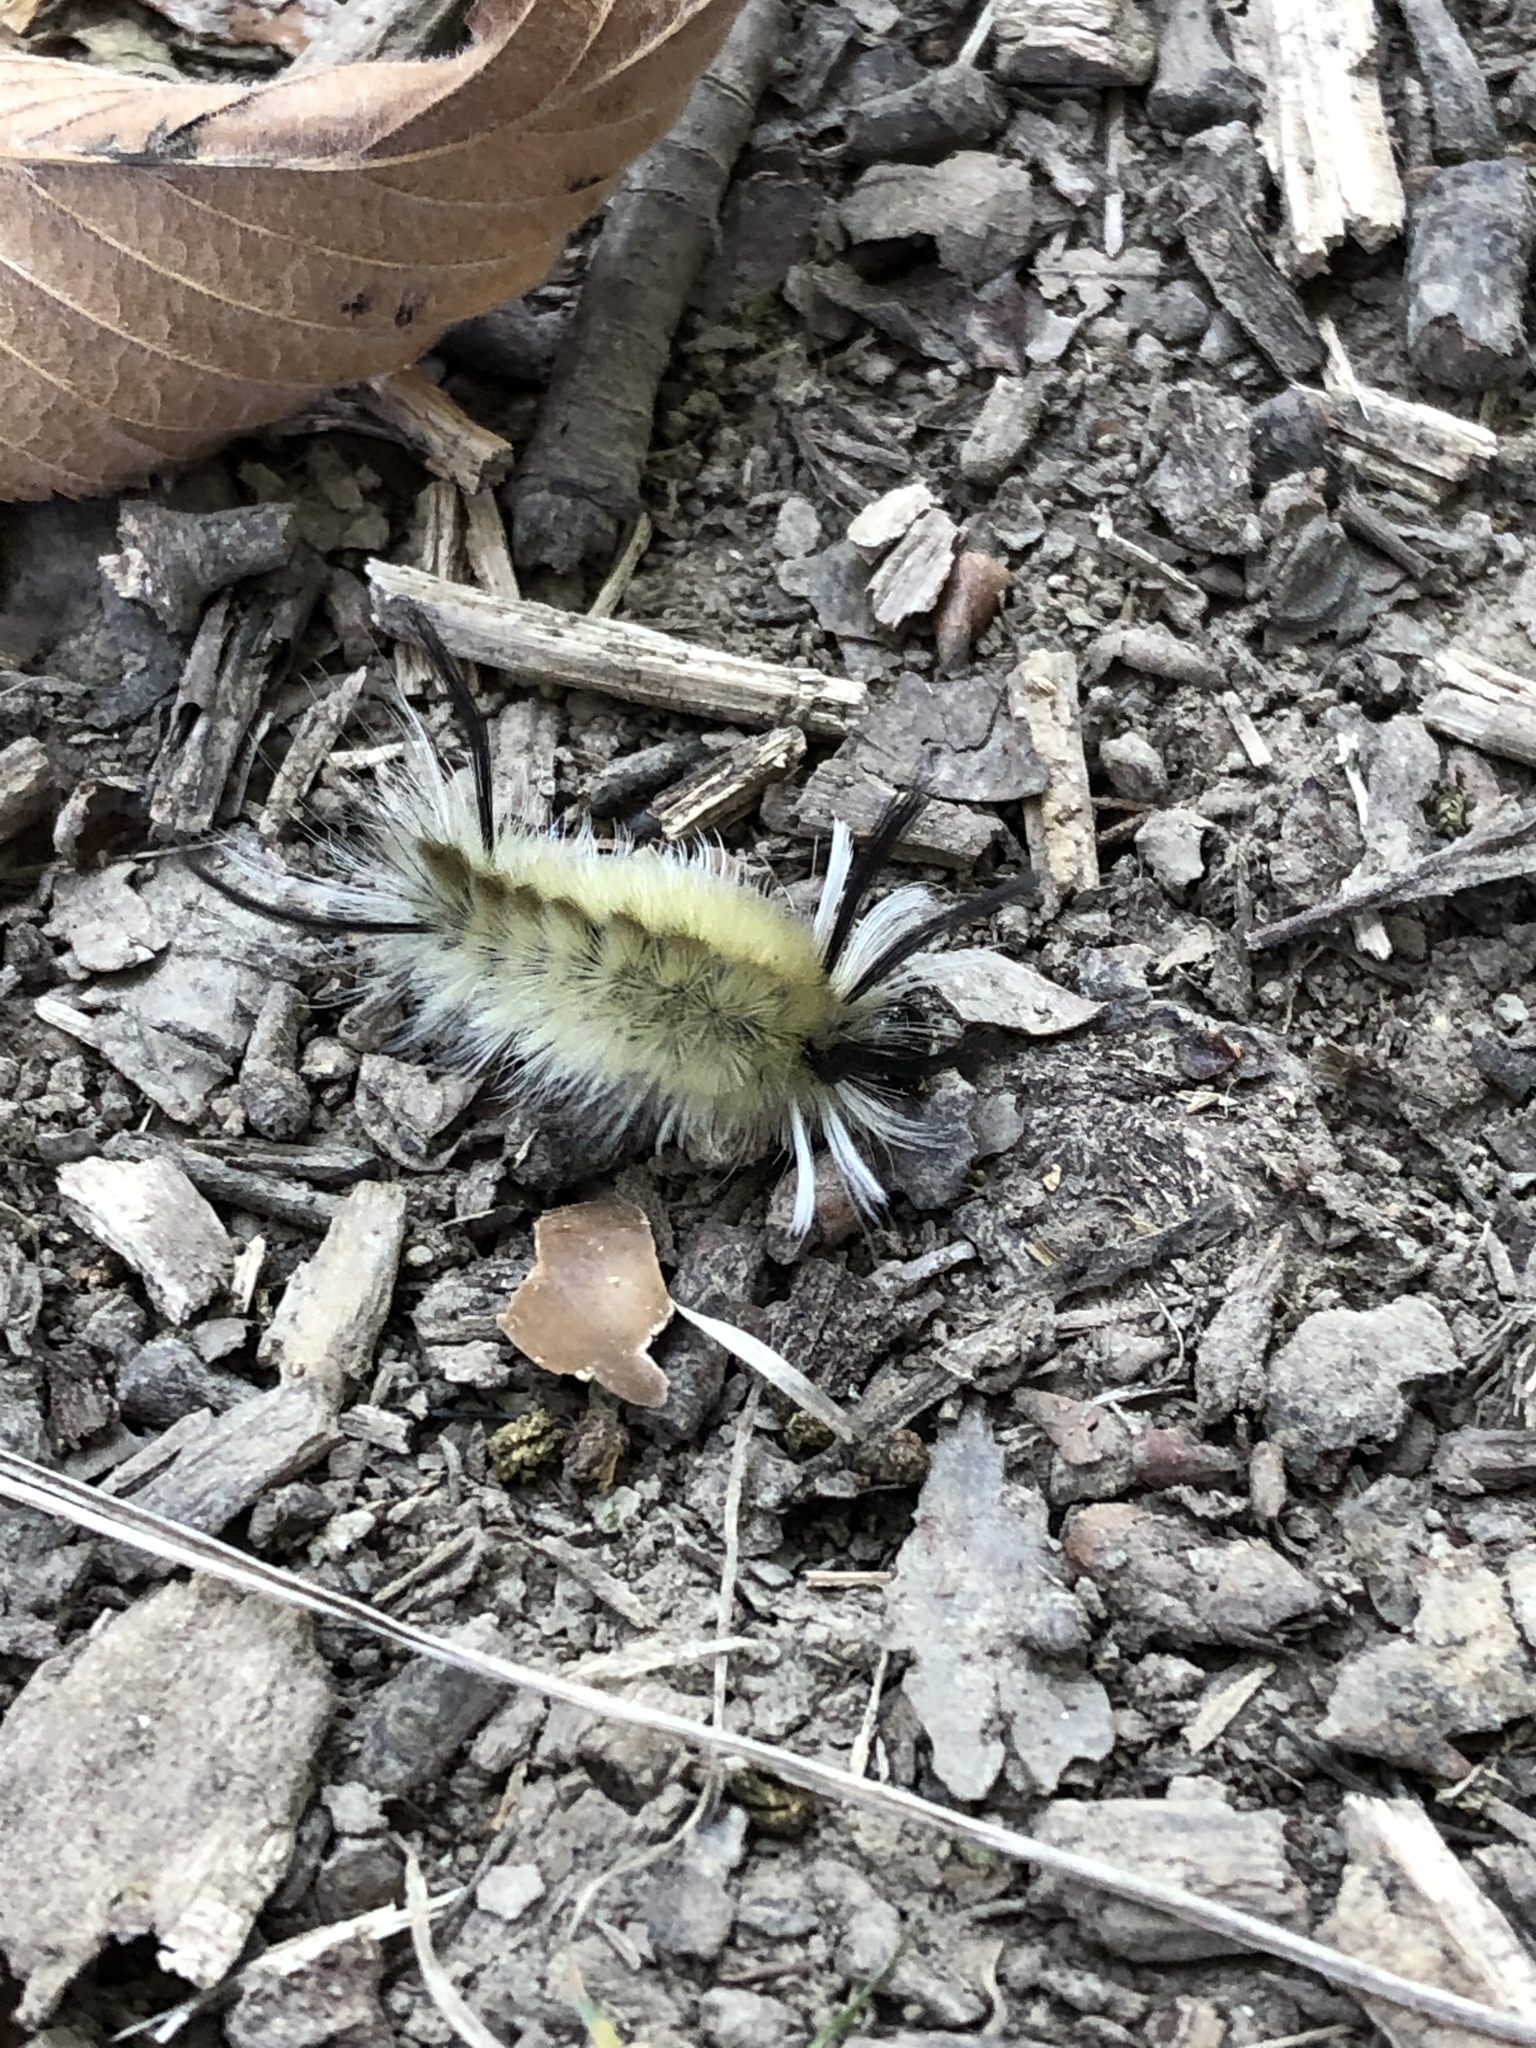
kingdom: Animalia
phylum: Arthropoda
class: Insecta
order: Lepidoptera
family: Erebidae
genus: Halysidota
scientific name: Halysidota tessellaris
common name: Banded tussock moth
